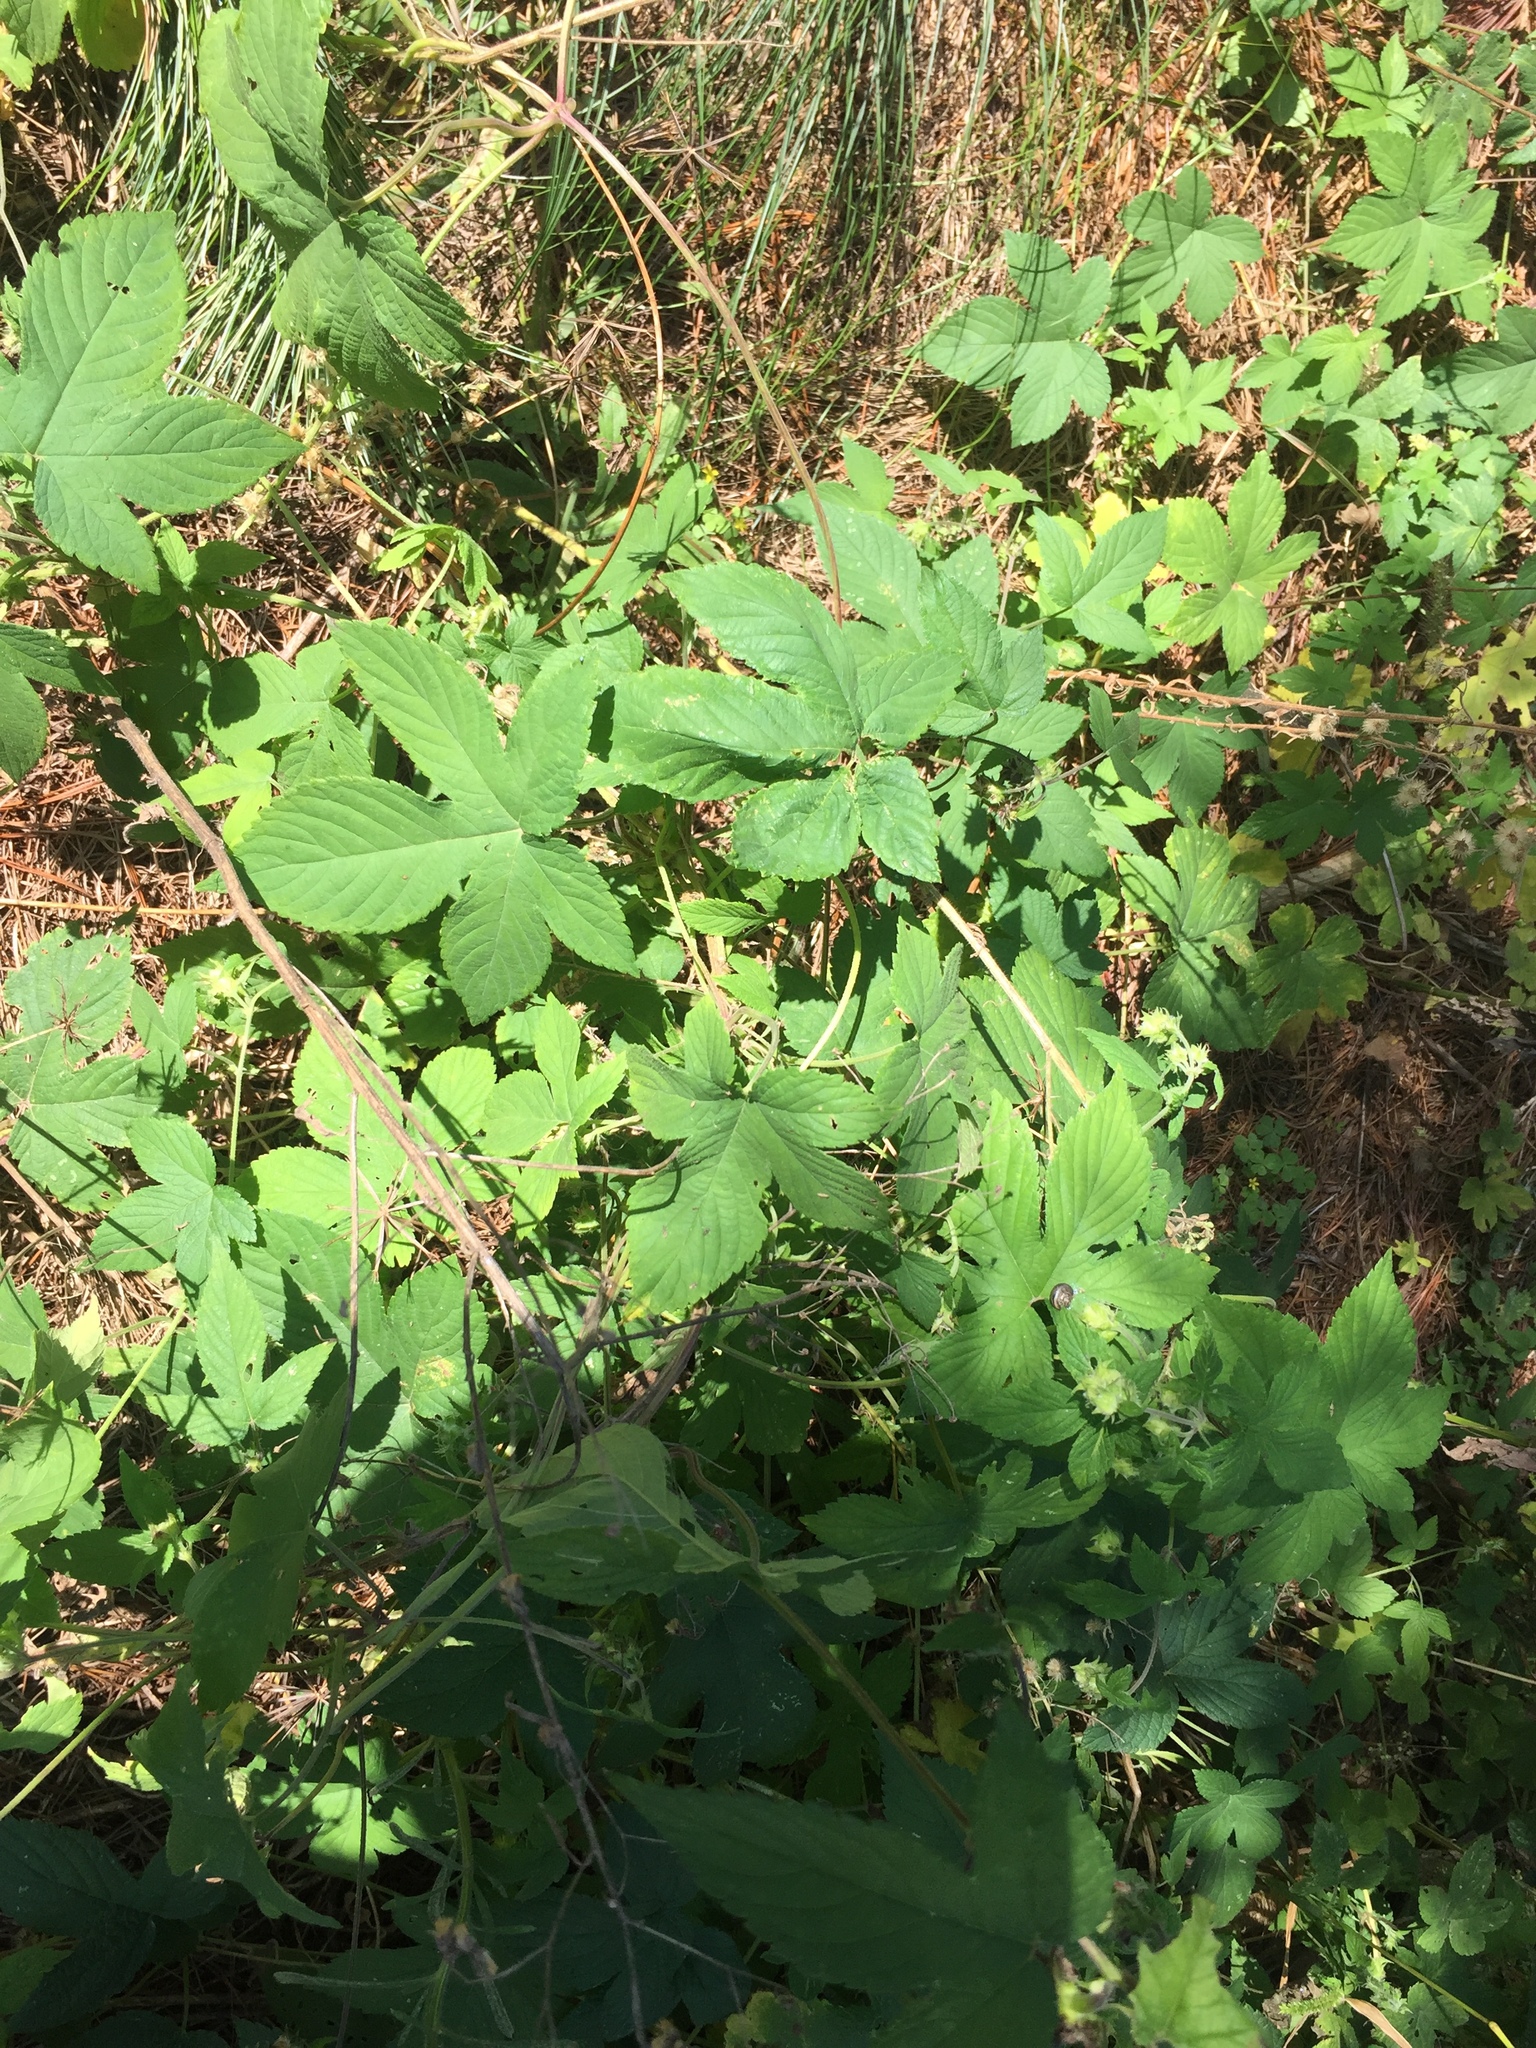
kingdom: Plantae
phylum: Tracheophyta
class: Magnoliopsida
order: Rosales
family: Cannabaceae
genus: Humulus
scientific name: Humulus scandens
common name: Japanese hop
